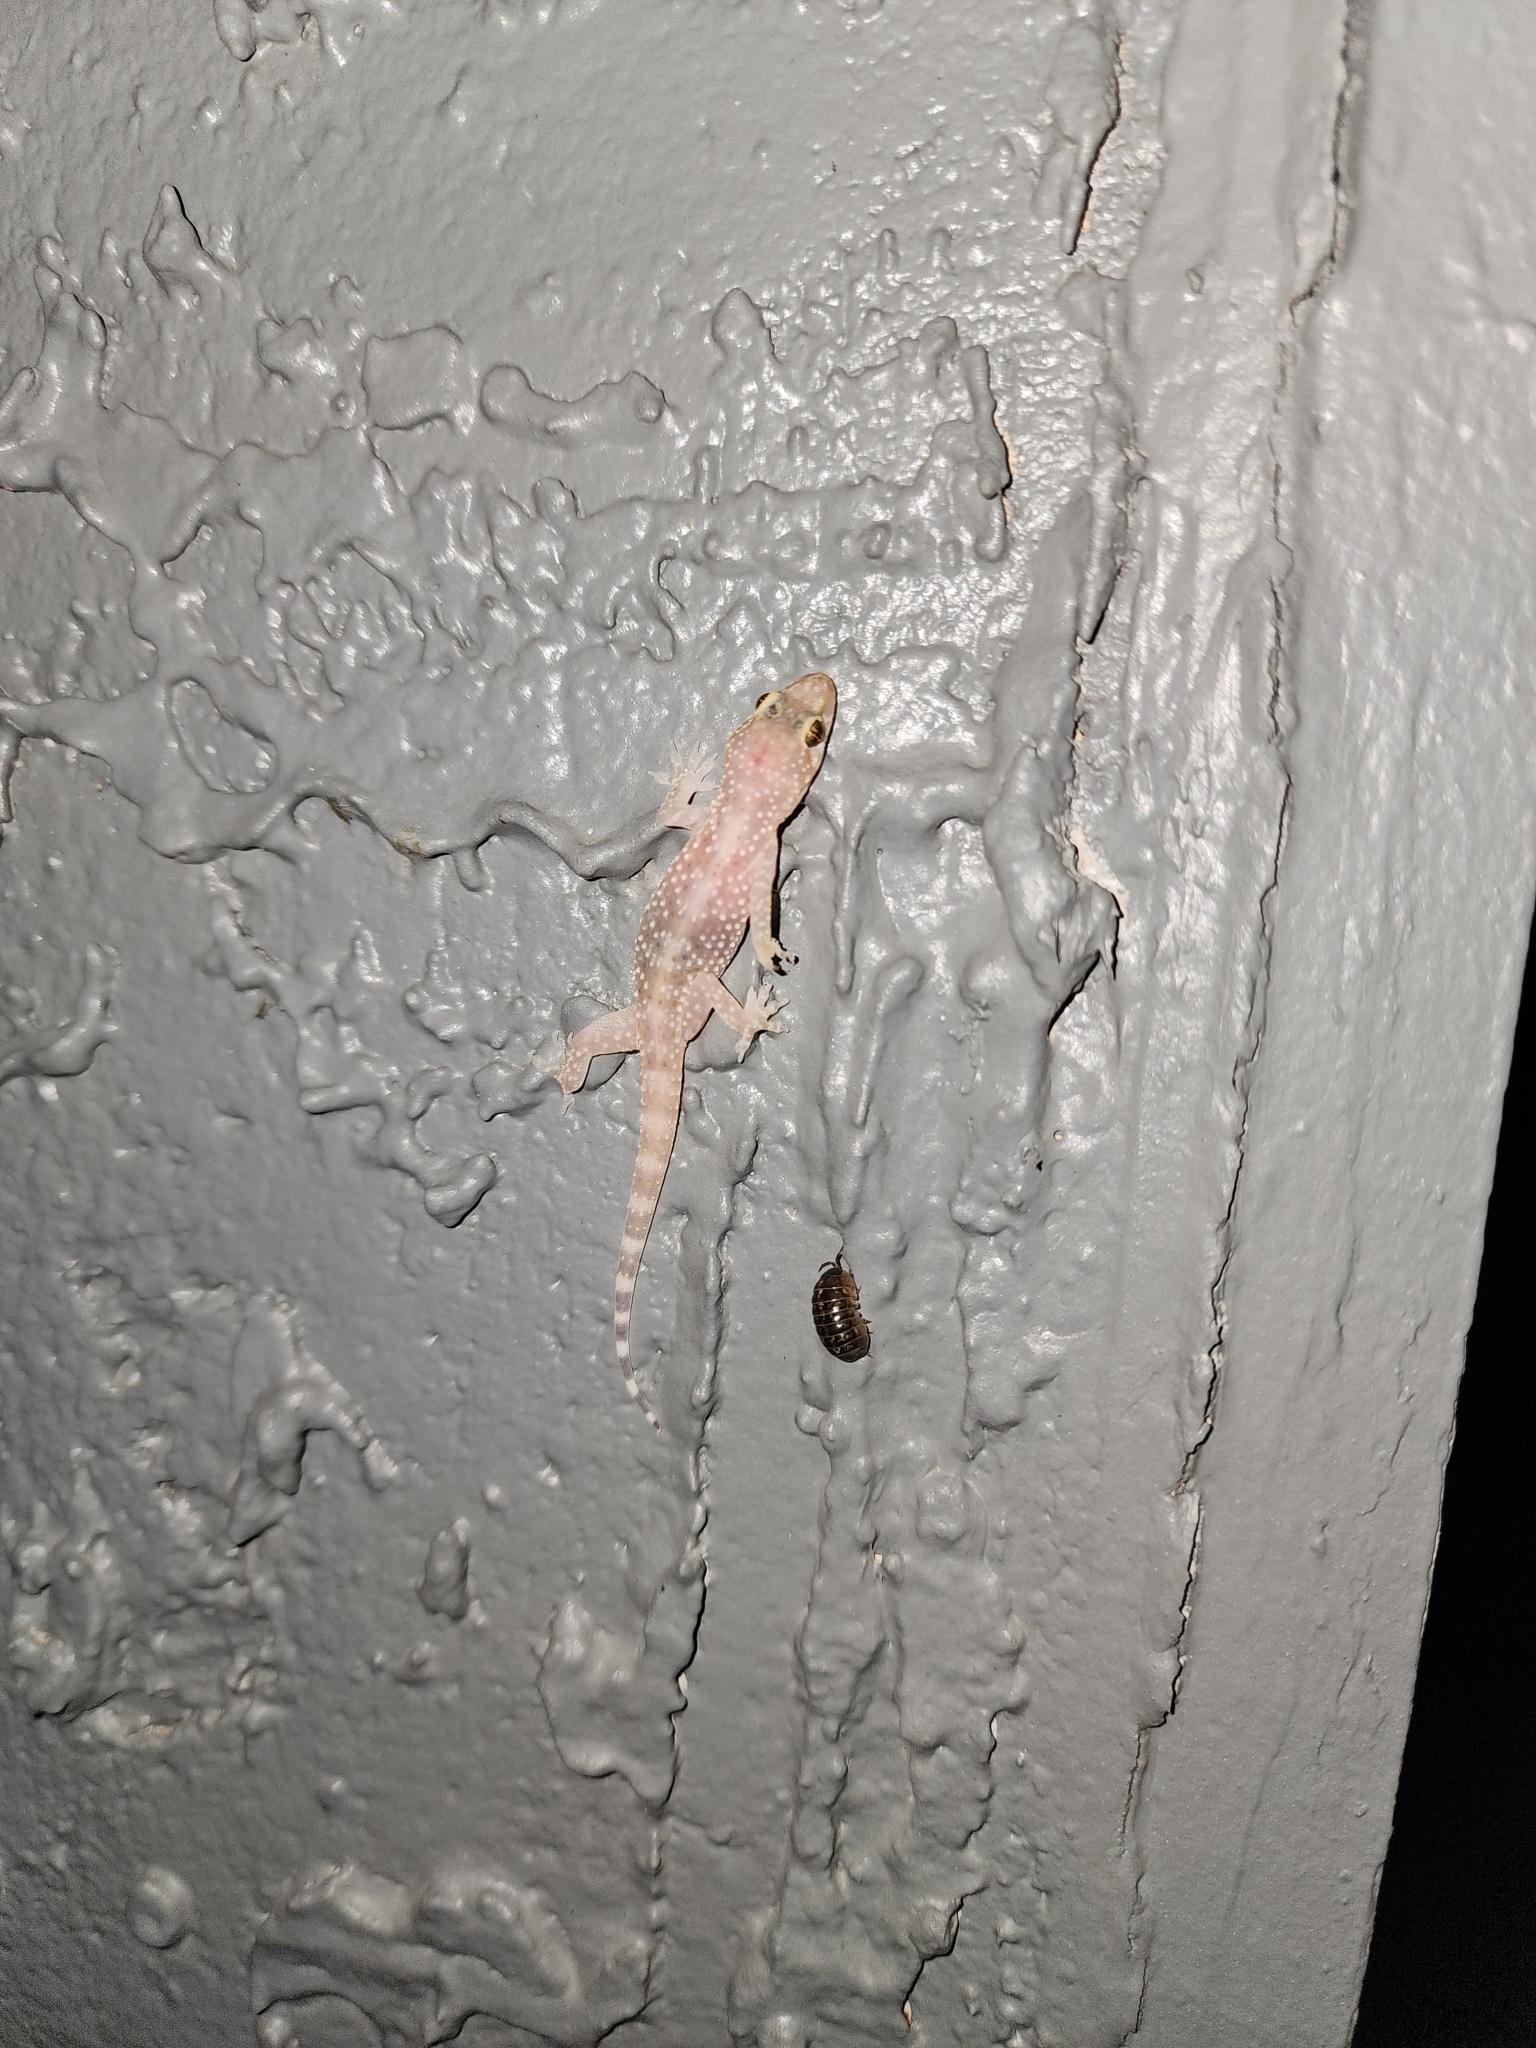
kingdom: Animalia
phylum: Chordata
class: Squamata
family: Gekkonidae
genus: Hemidactylus
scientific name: Hemidactylus turcicus
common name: Turkish gecko
